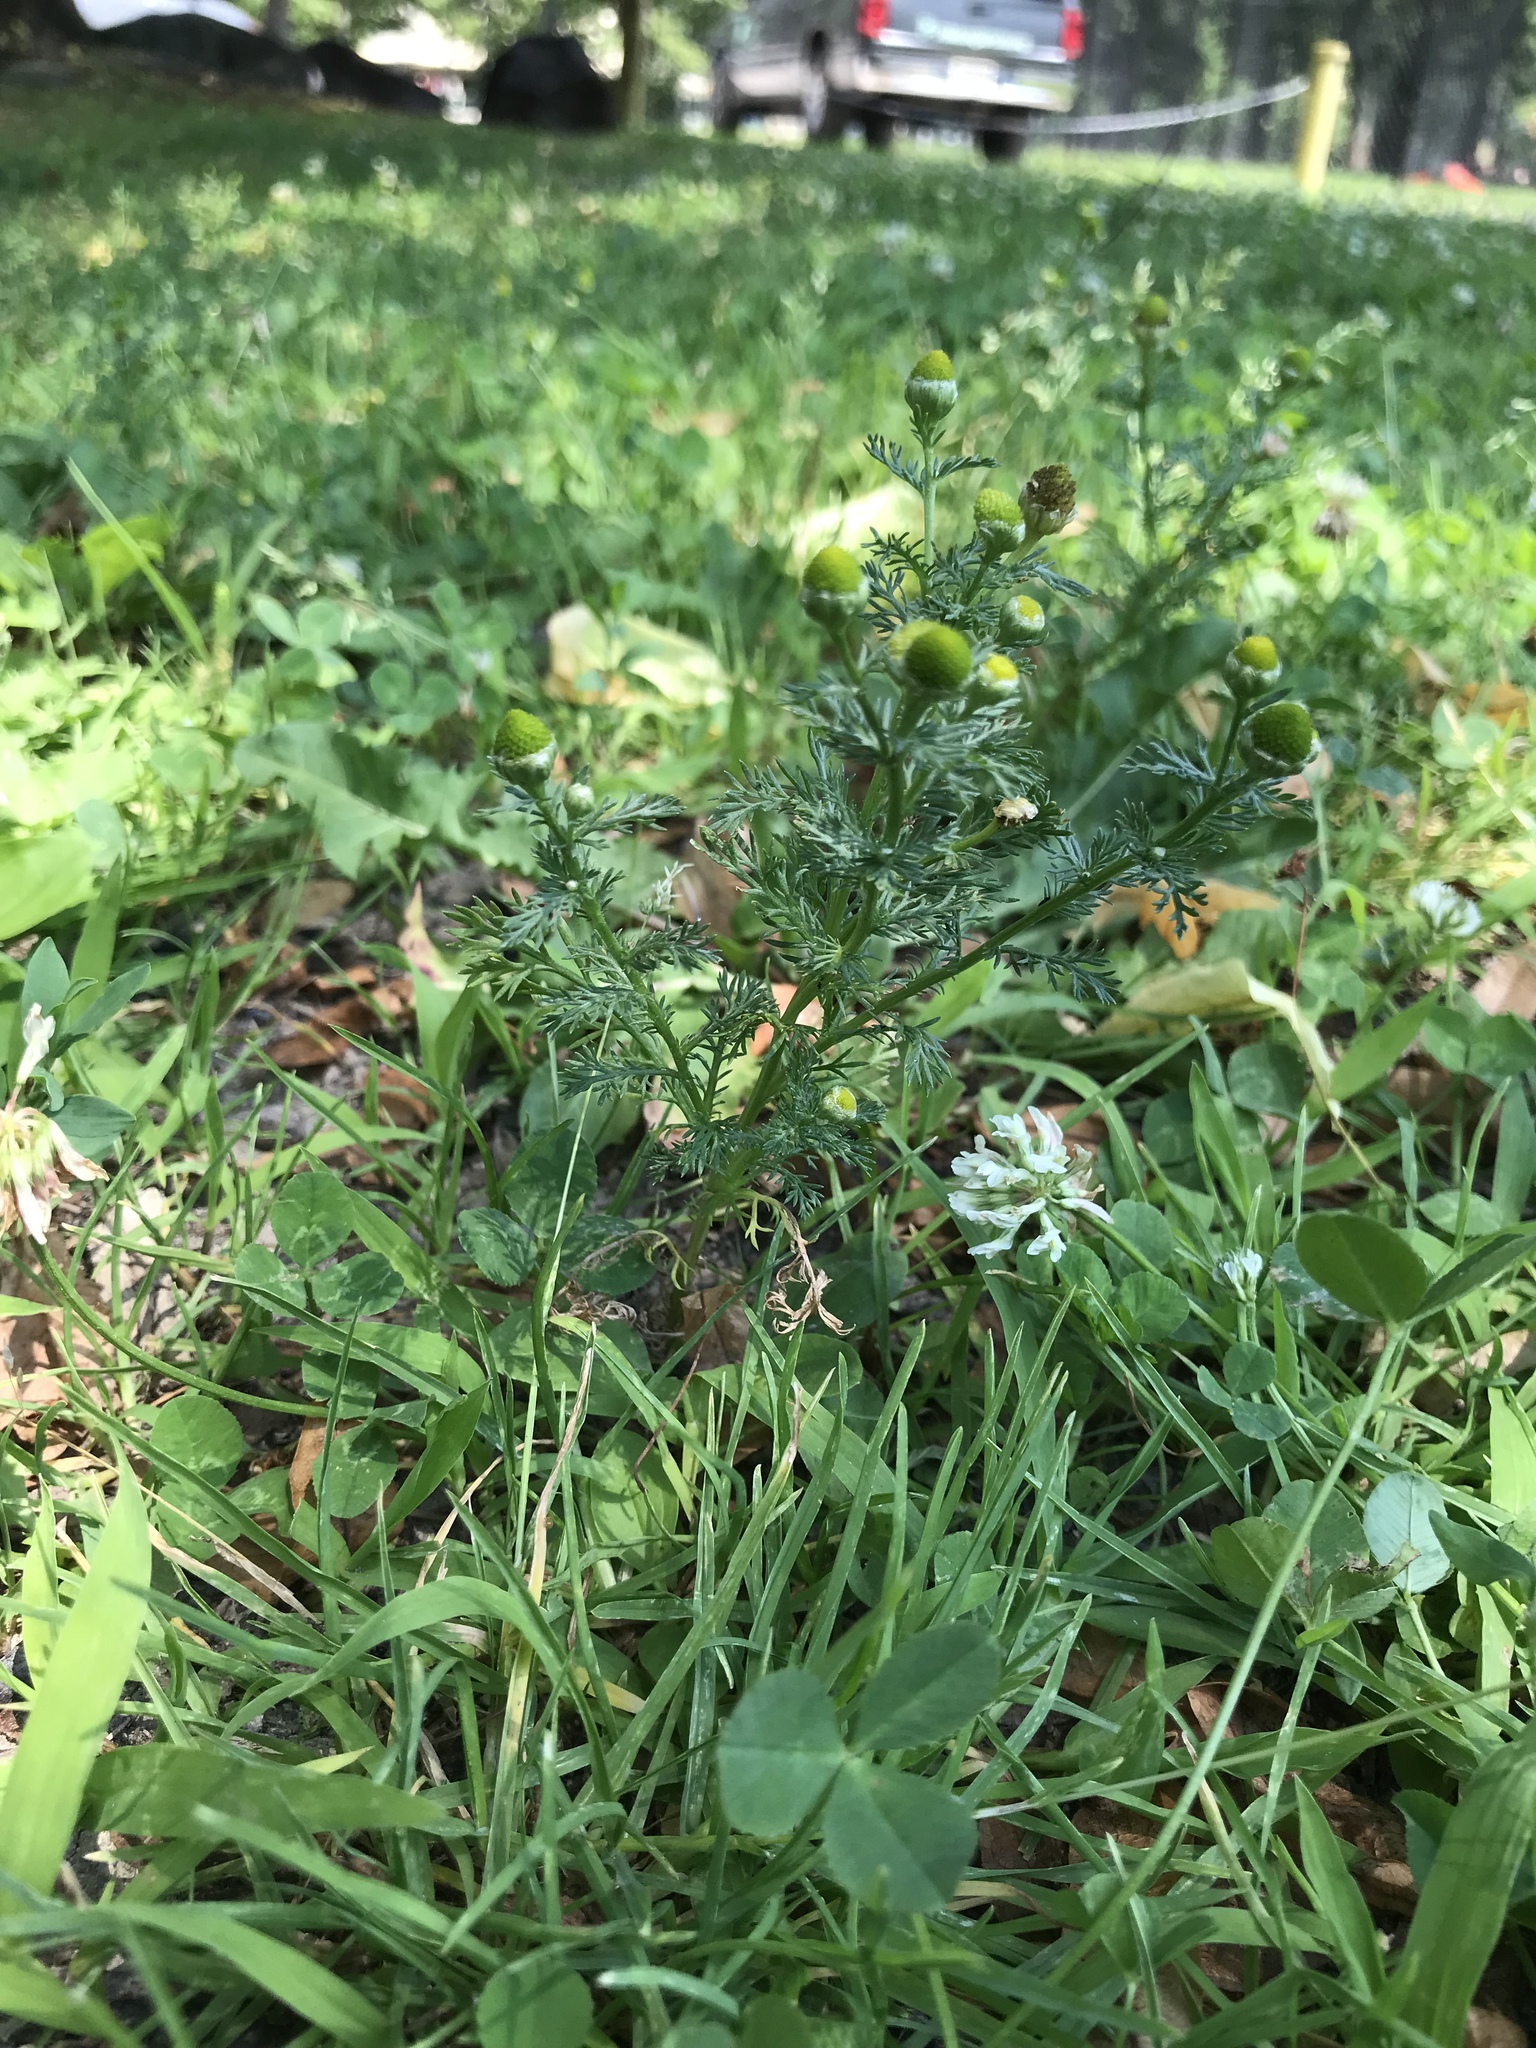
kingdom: Plantae
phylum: Tracheophyta
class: Magnoliopsida
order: Asterales
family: Asteraceae
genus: Matricaria
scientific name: Matricaria discoidea
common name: Disc mayweed
